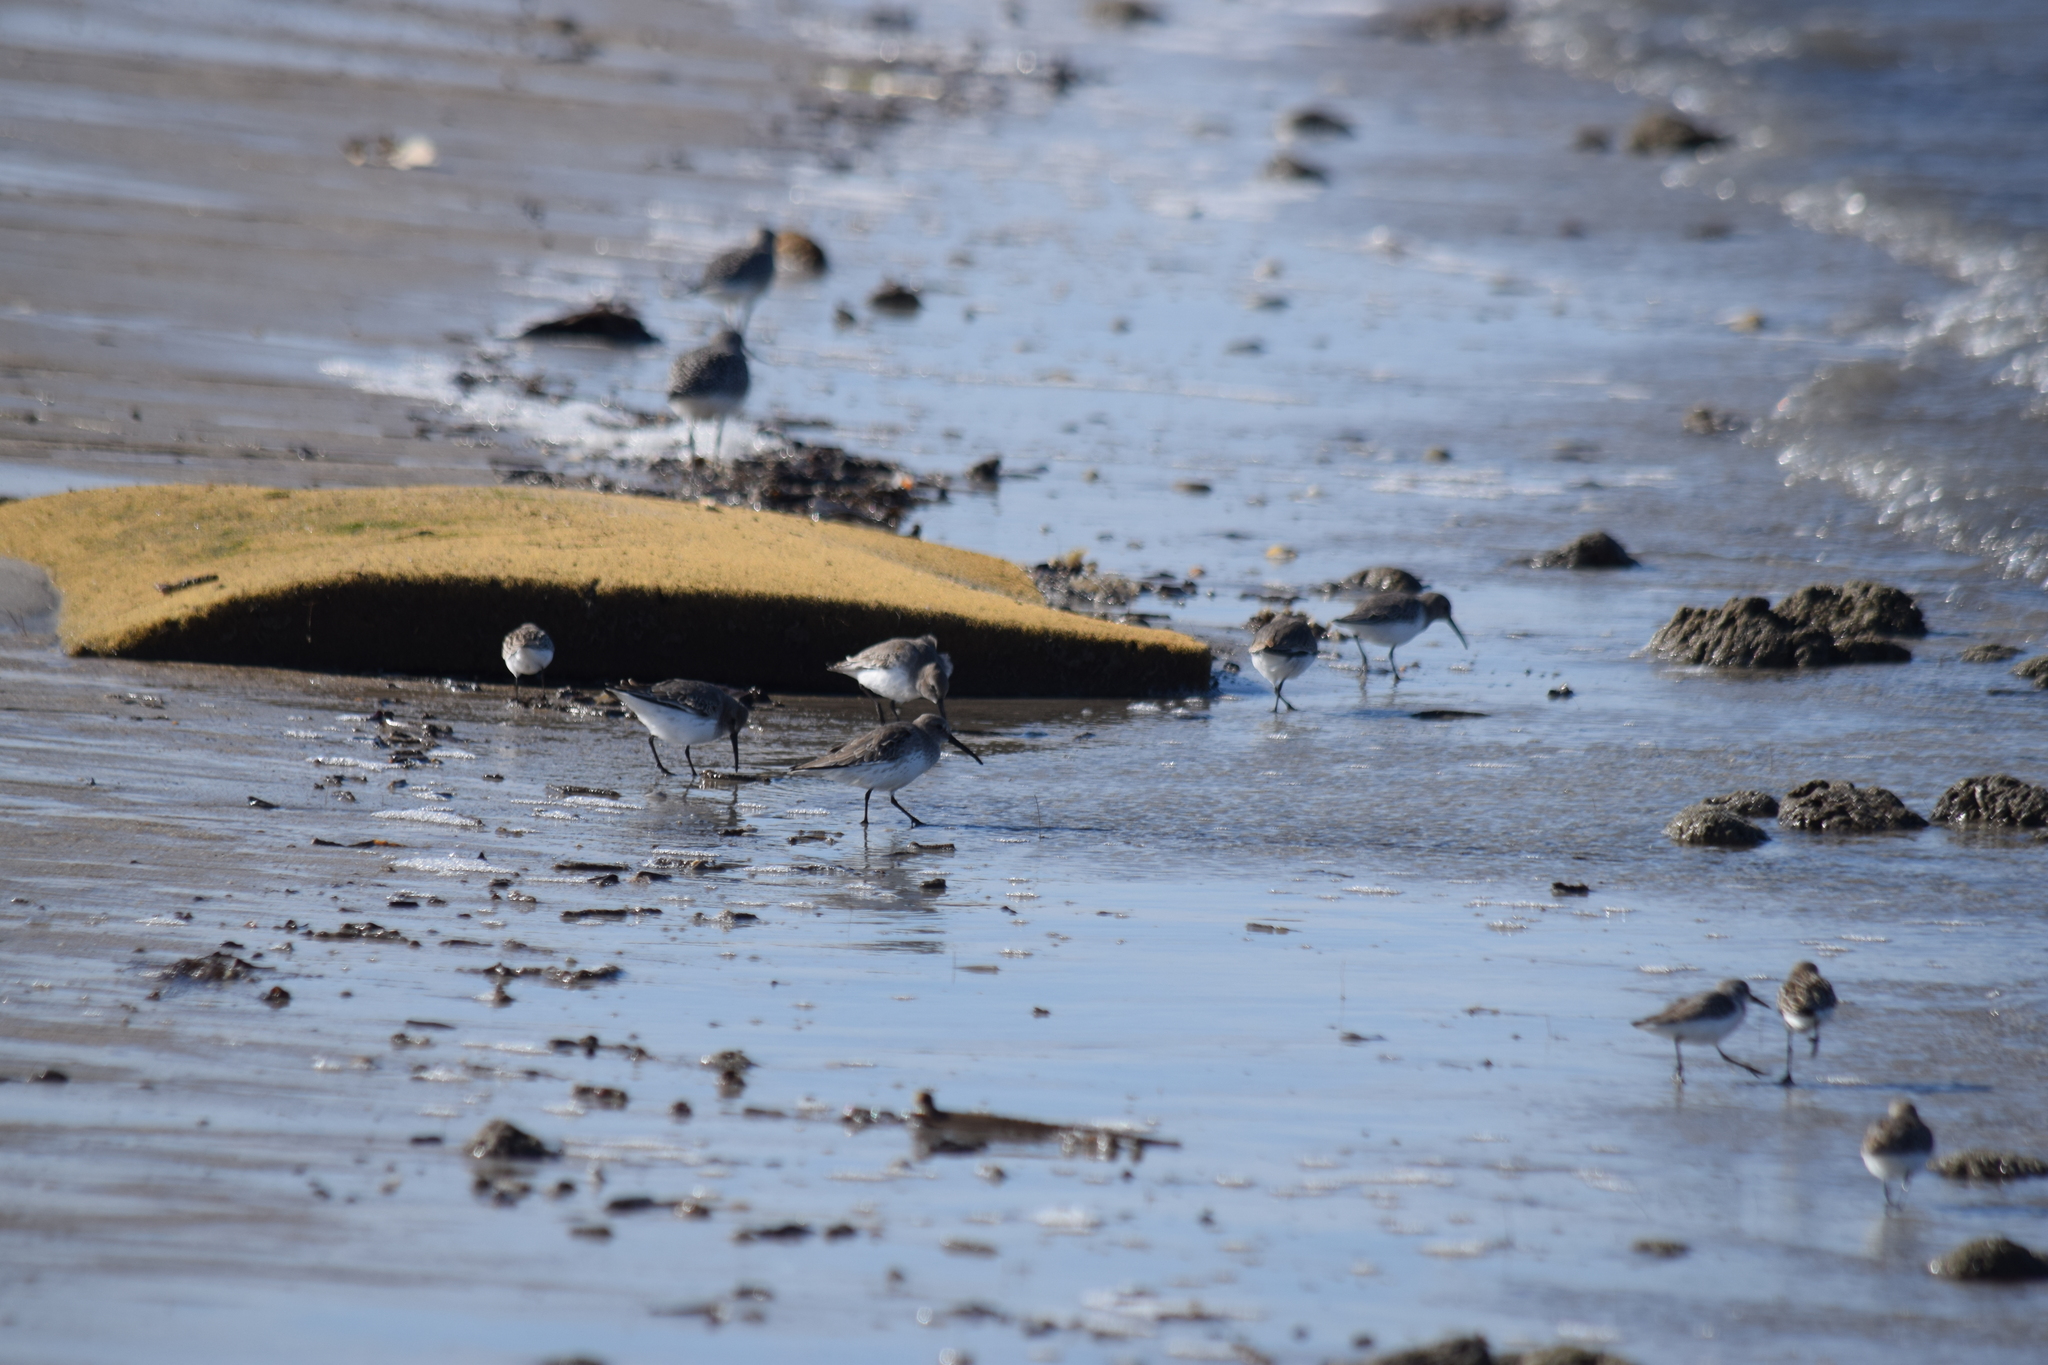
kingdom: Animalia
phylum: Chordata
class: Aves
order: Charadriiformes
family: Scolopacidae
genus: Calidris
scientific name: Calidris alpina
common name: Dunlin
